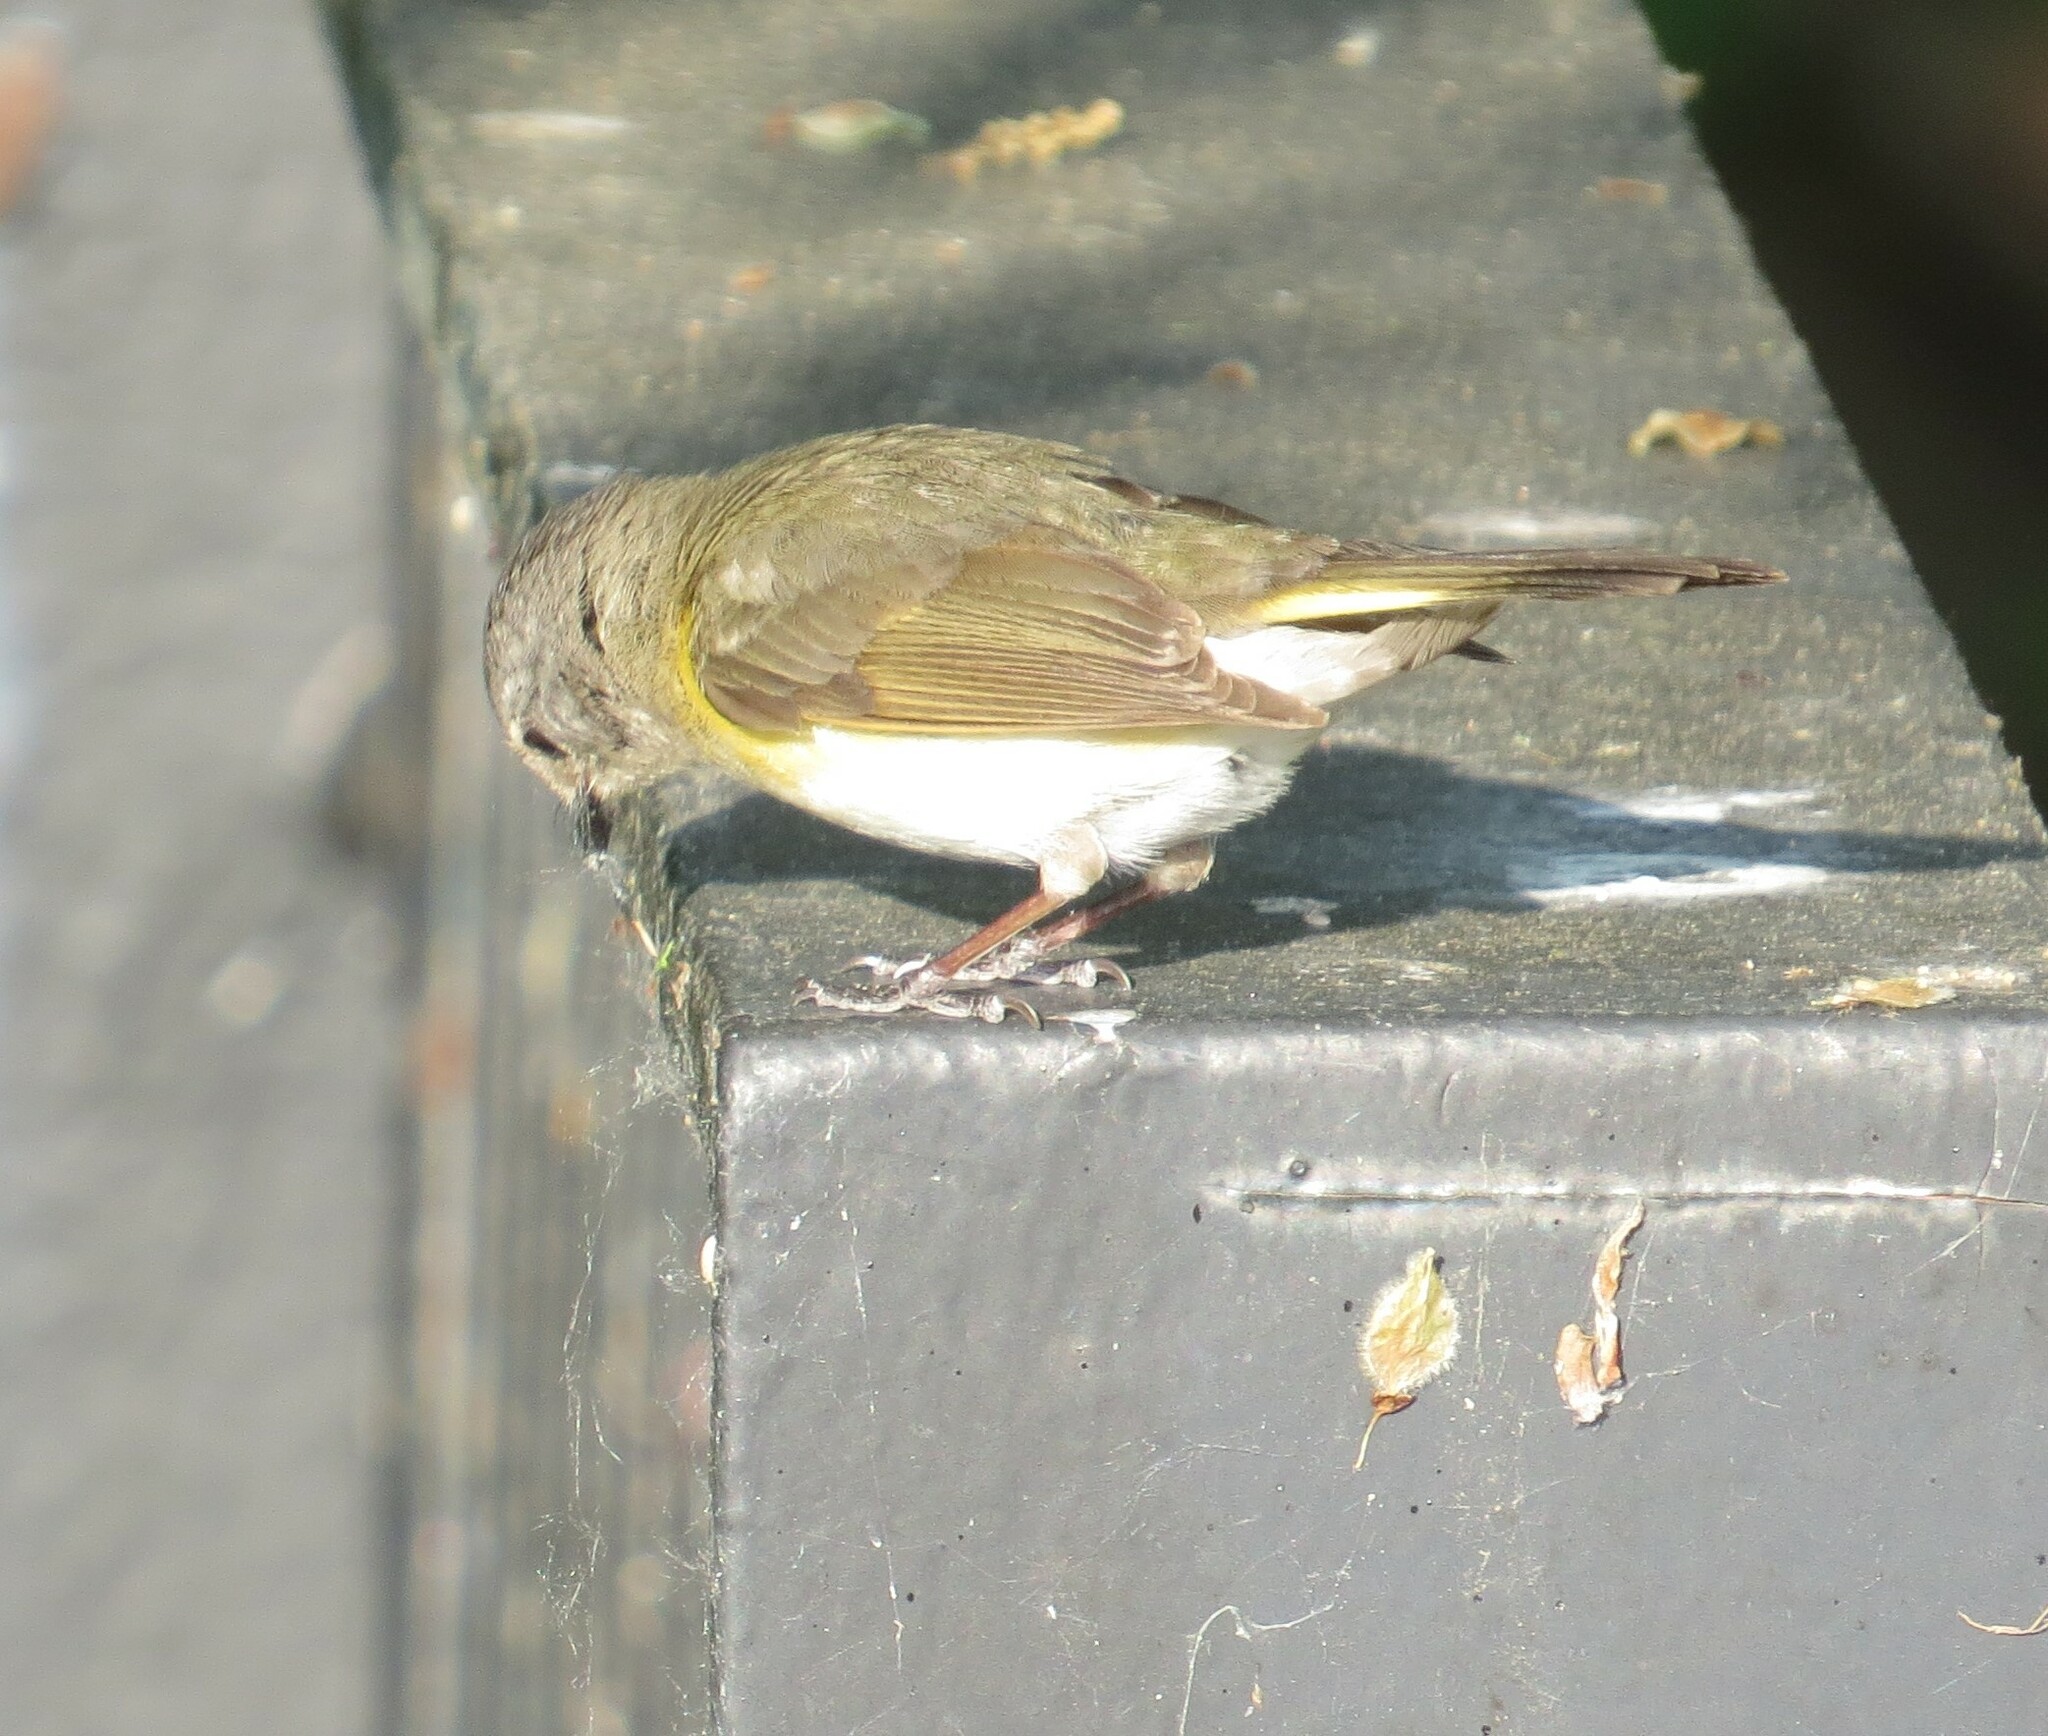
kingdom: Animalia
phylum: Chordata
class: Aves
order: Passeriformes
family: Parulidae
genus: Setophaga
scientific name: Setophaga ruticilla
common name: American redstart
